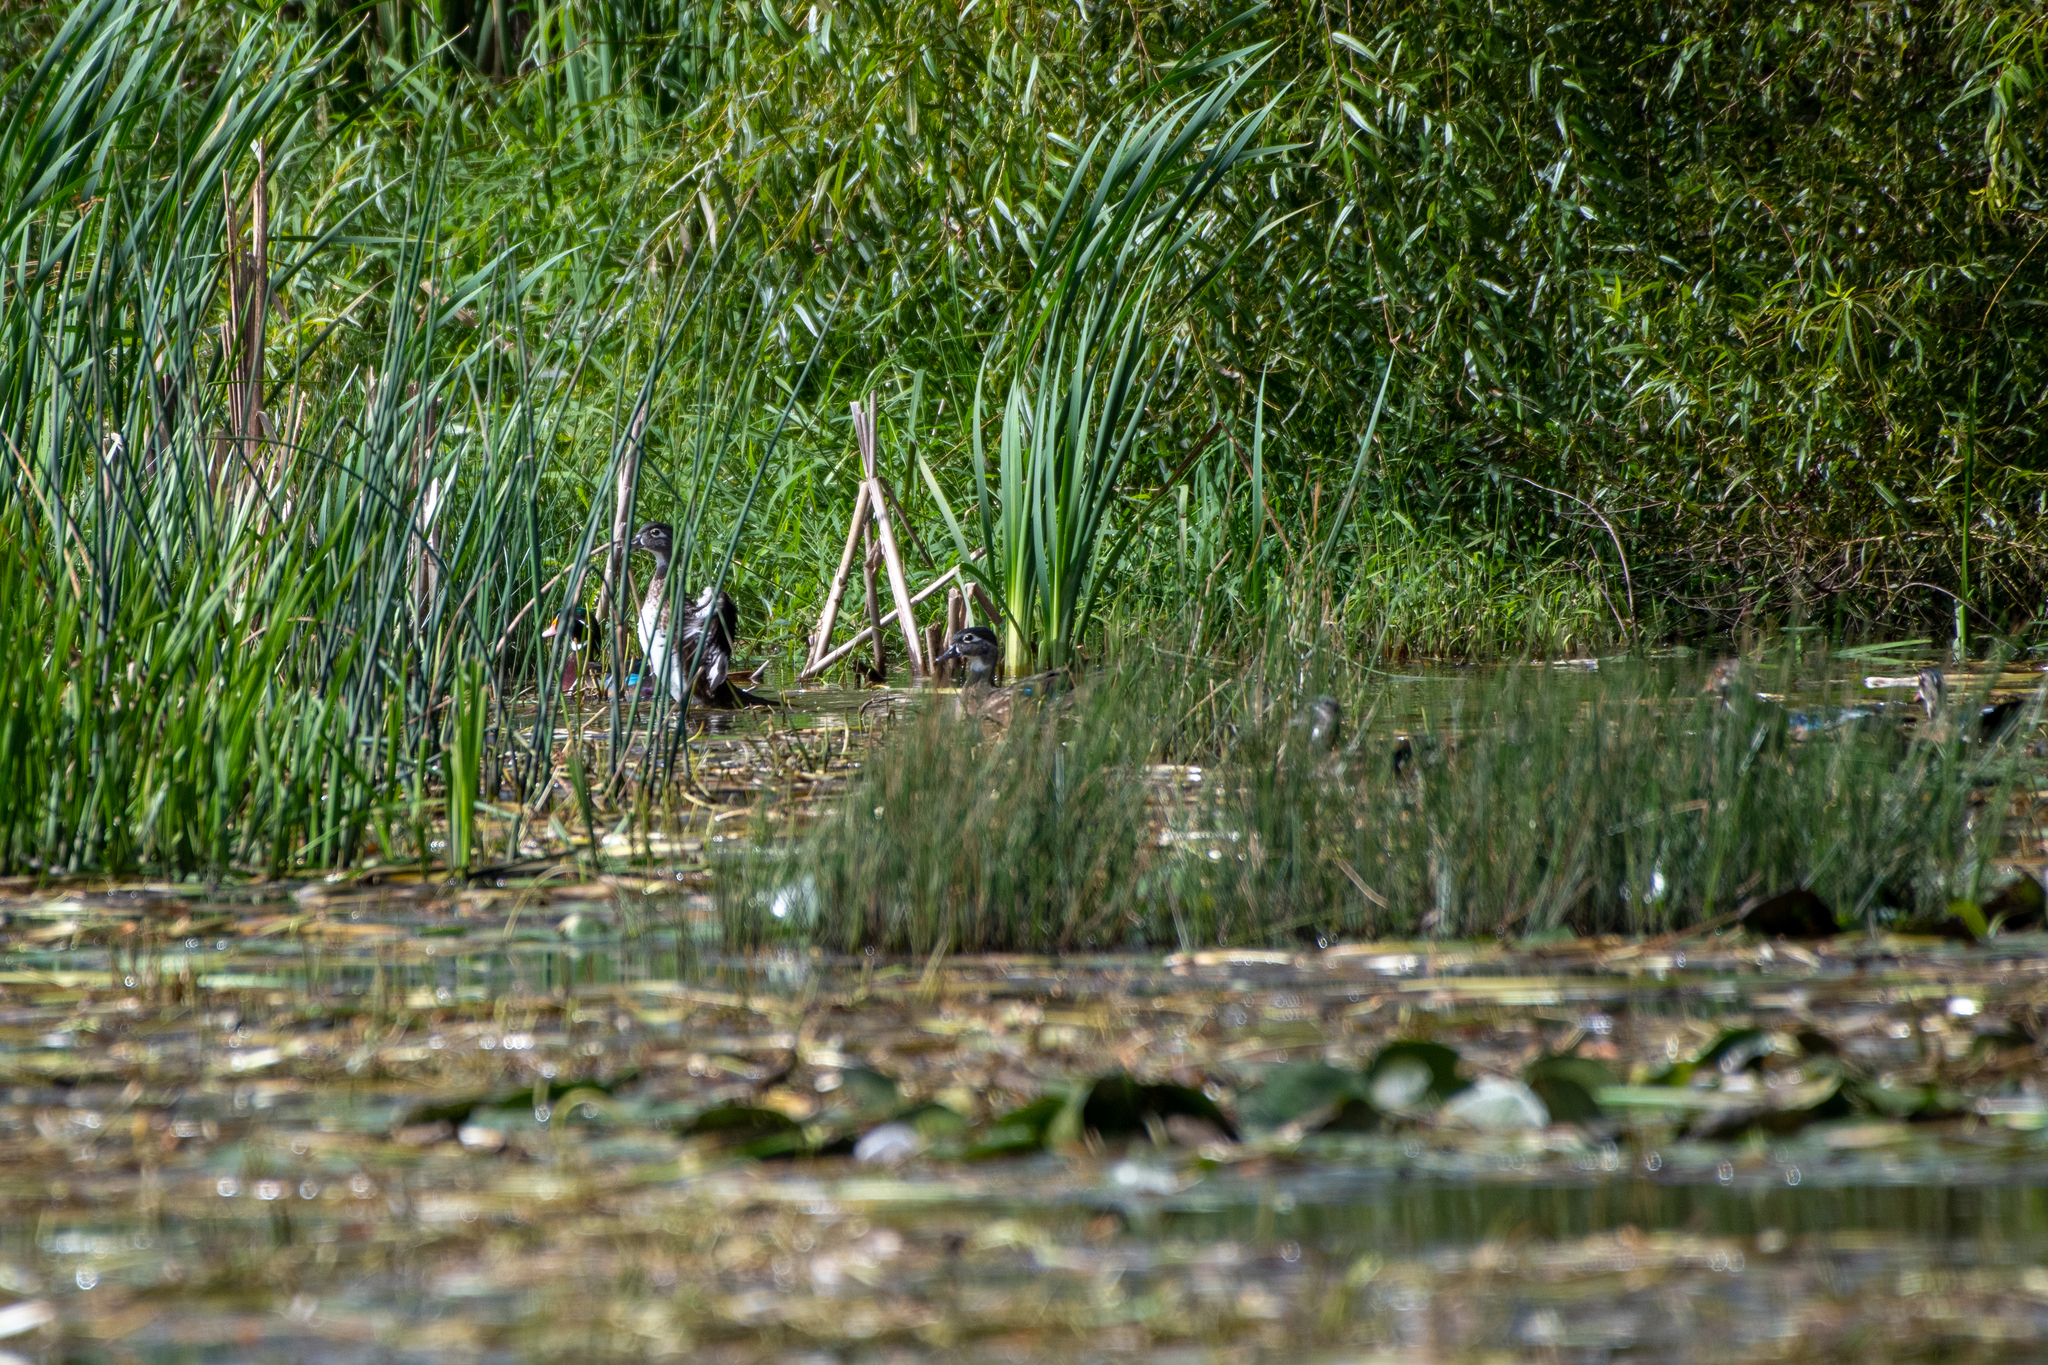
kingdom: Animalia
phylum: Chordata
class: Aves
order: Anseriformes
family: Anatidae
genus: Aix
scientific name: Aix sponsa
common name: Wood duck
